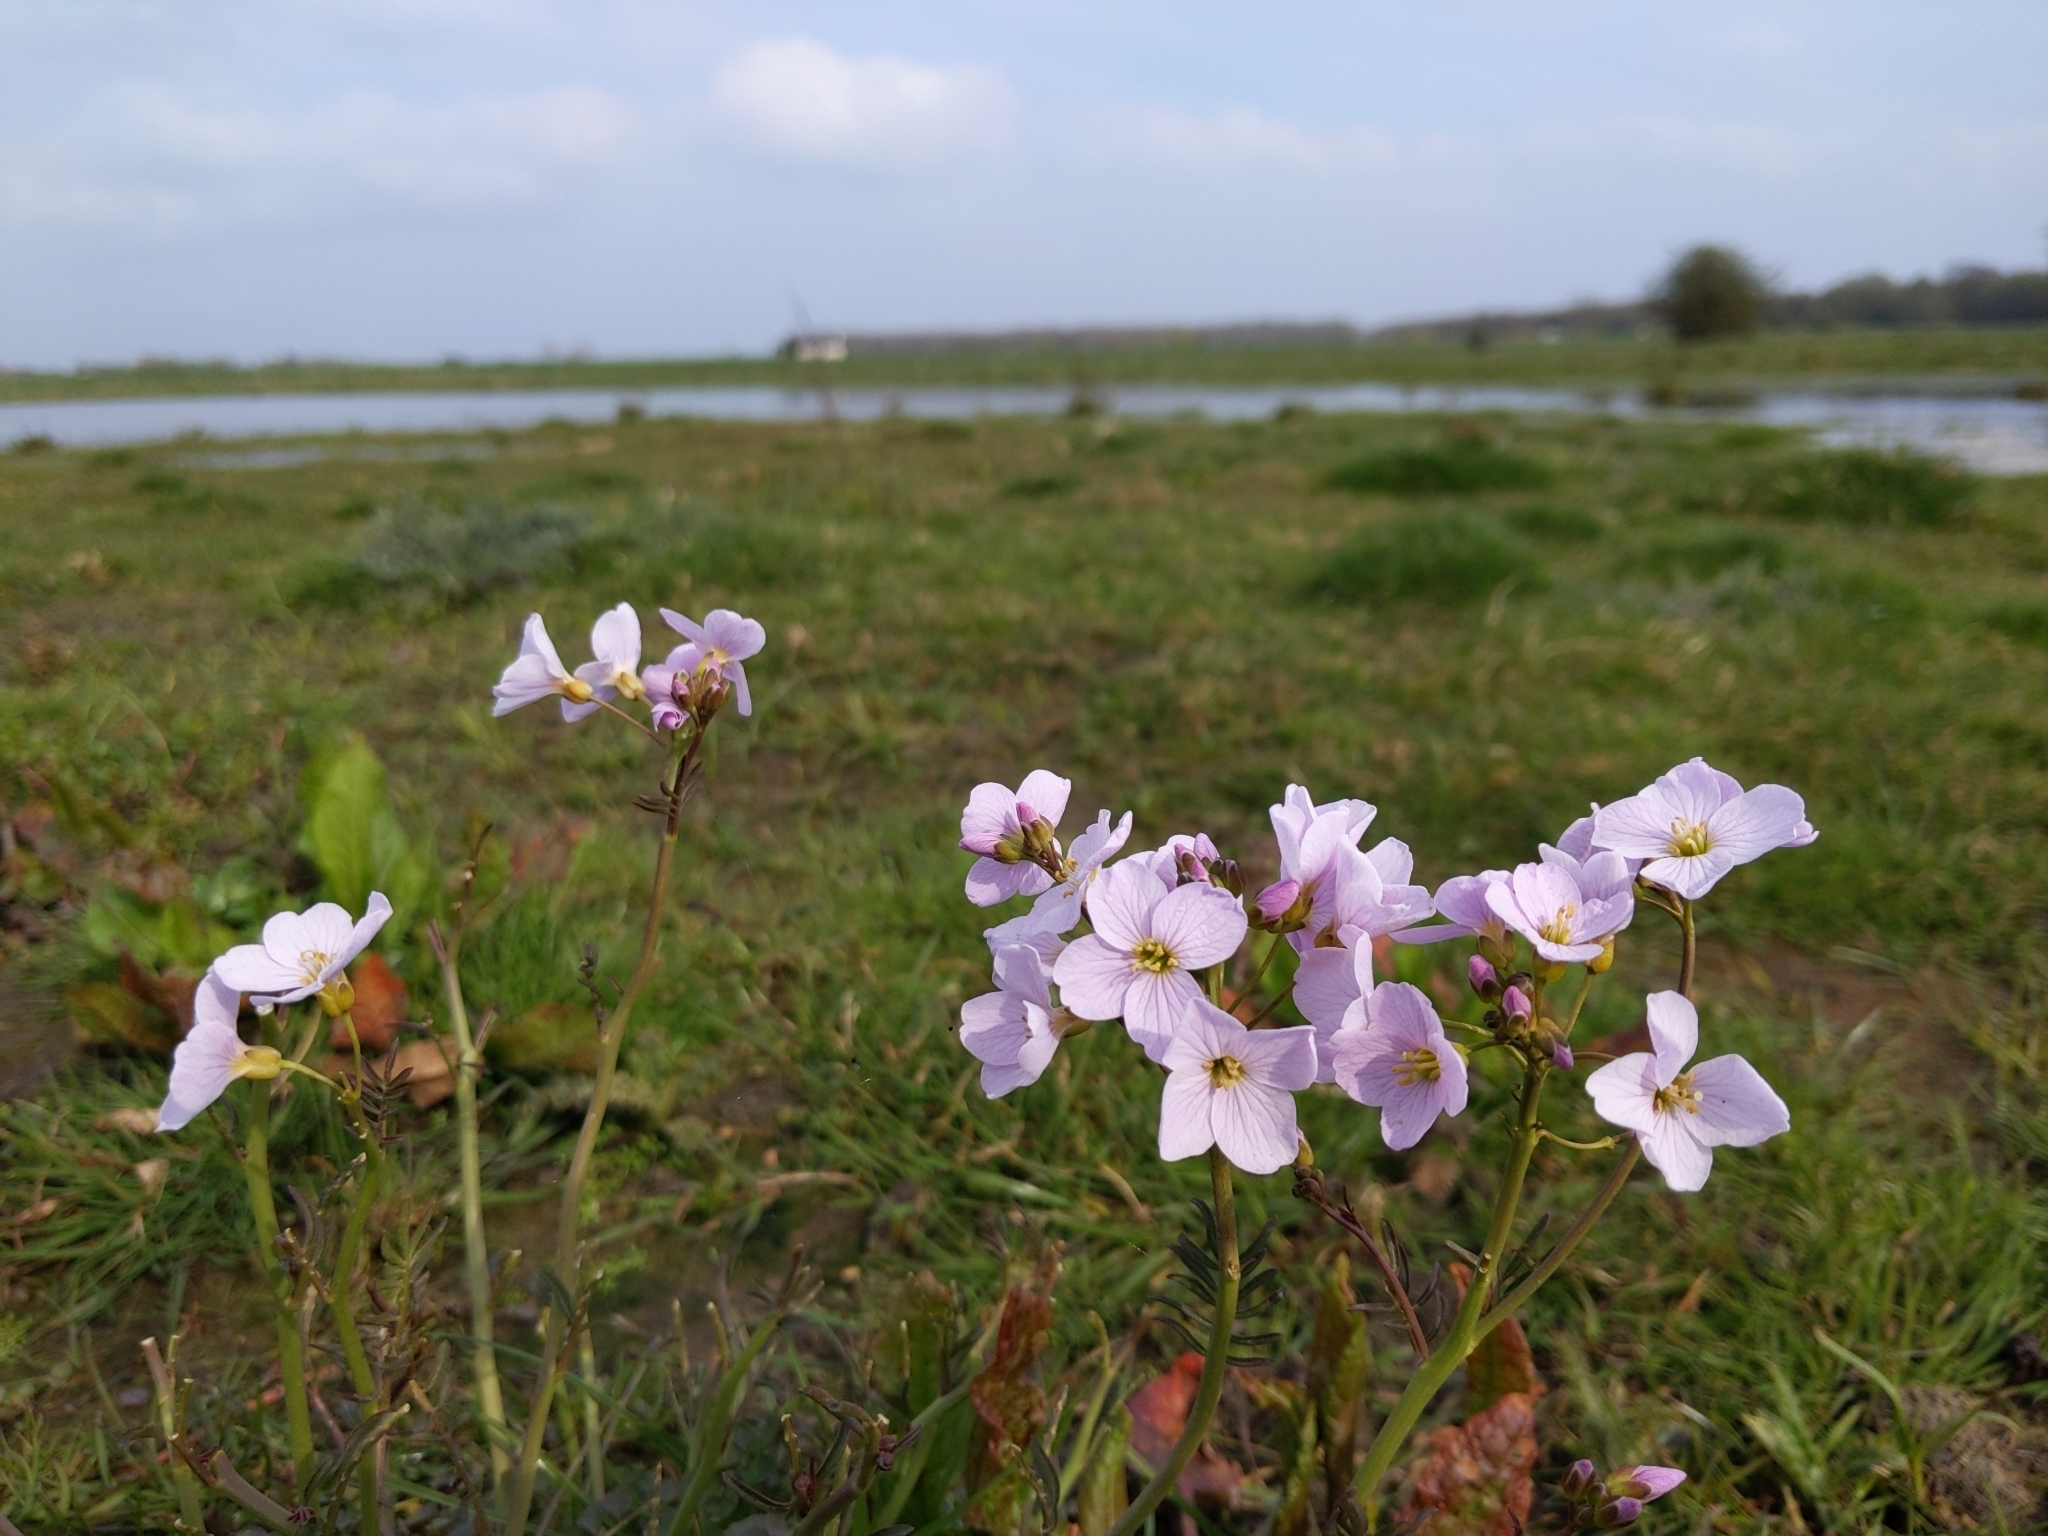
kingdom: Plantae
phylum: Tracheophyta
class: Magnoliopsida
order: Brassicales
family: Brassicaceae
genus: Cardamine
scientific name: Cardamine pratensis
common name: Cuckoo flower
